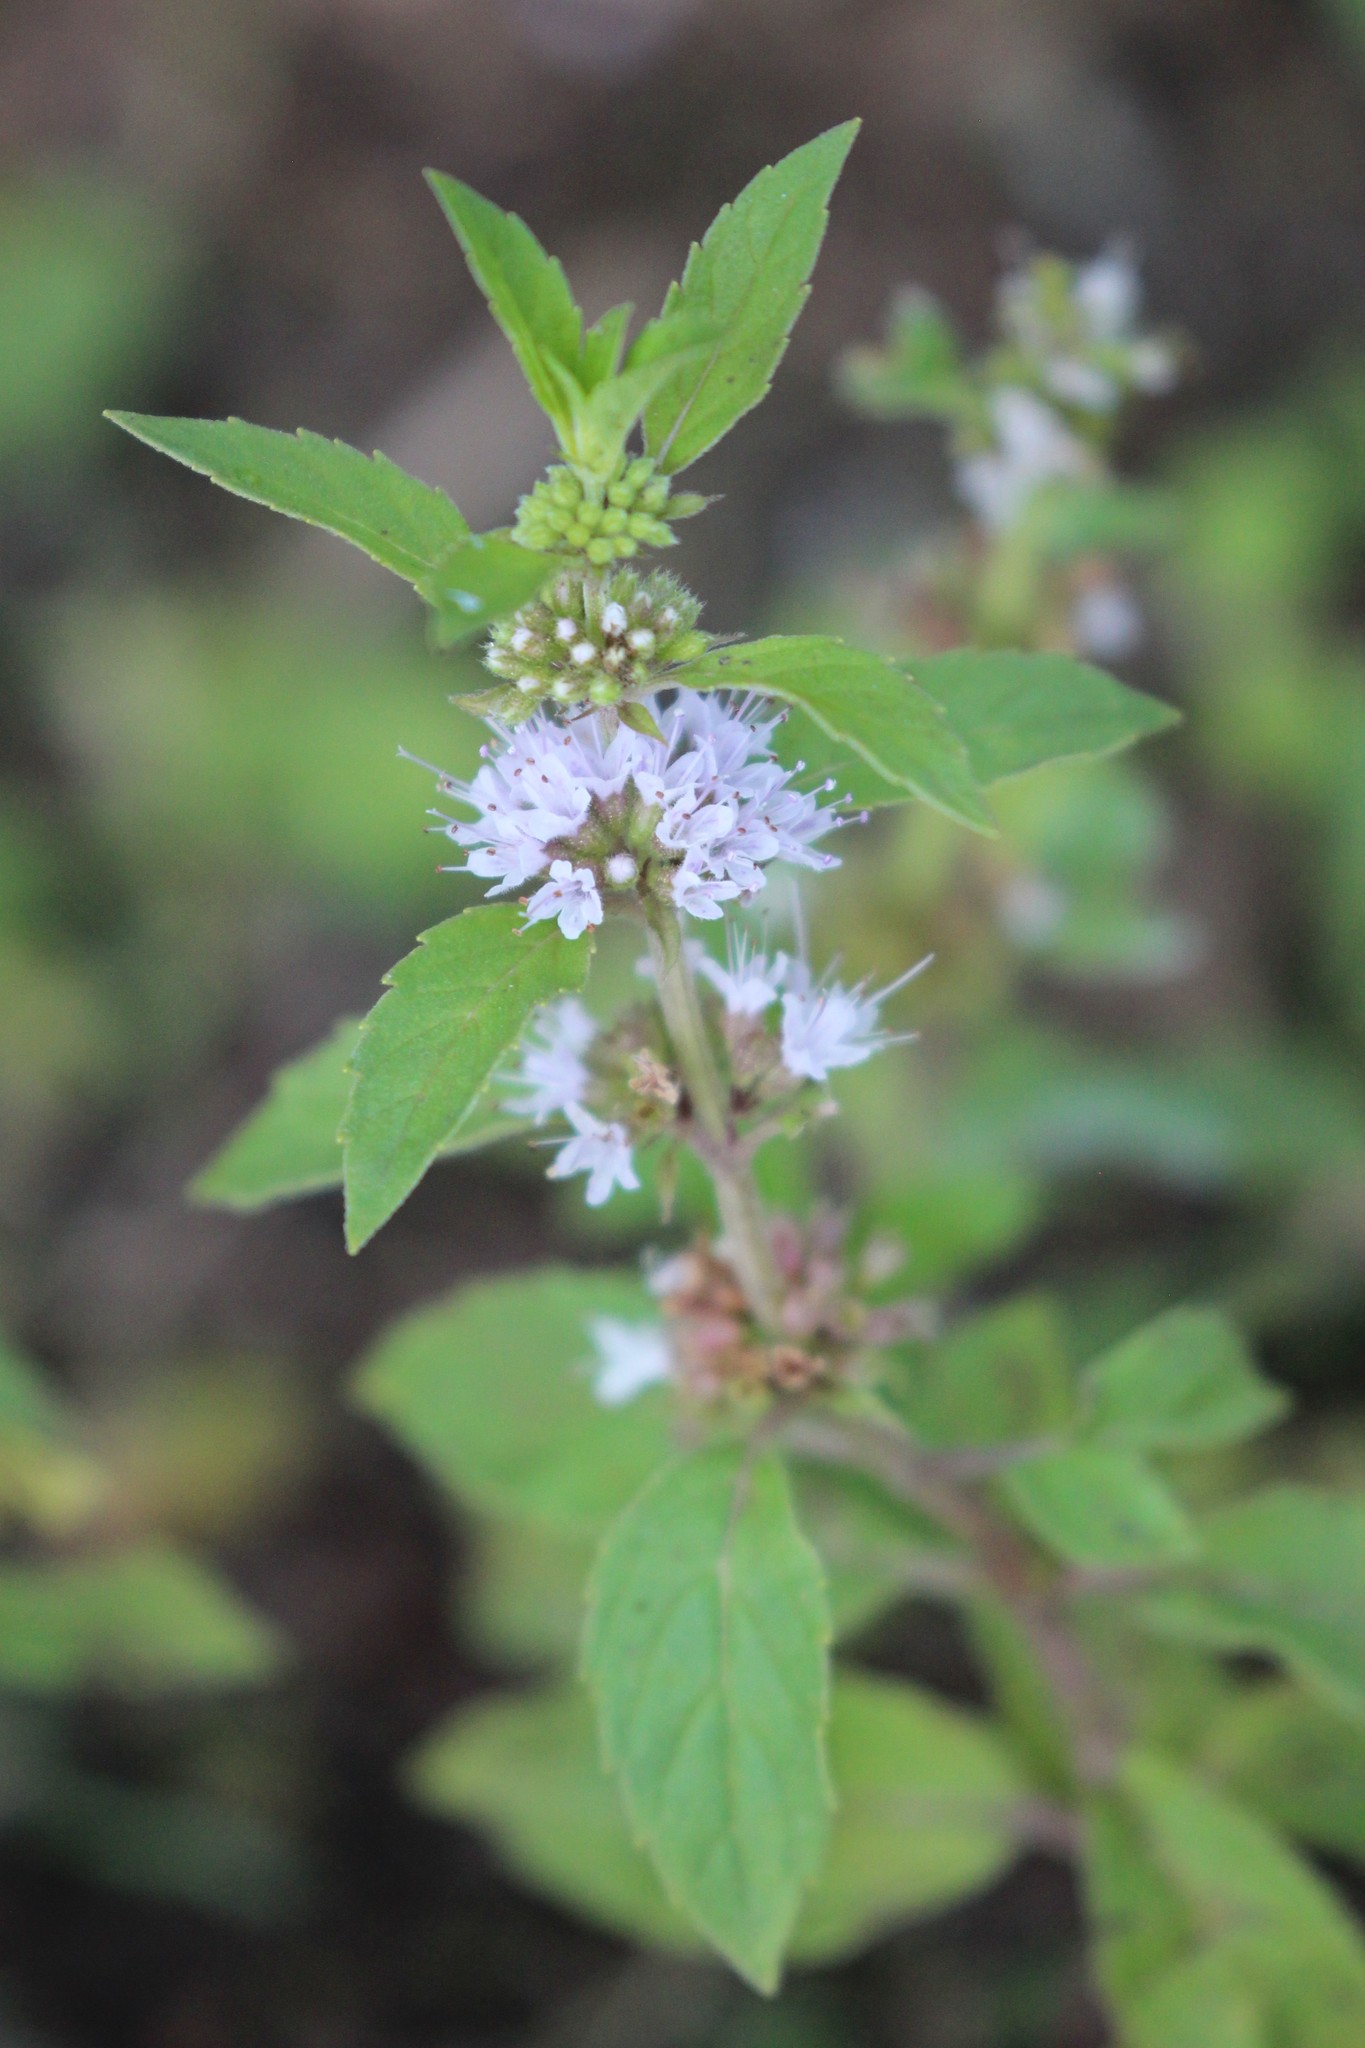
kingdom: Plantae
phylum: Tracheophyta
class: Magnoliopsida
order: Lamiales
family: Lamiaceae
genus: Mentha
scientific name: Mentha canadensis
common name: American corn mint
